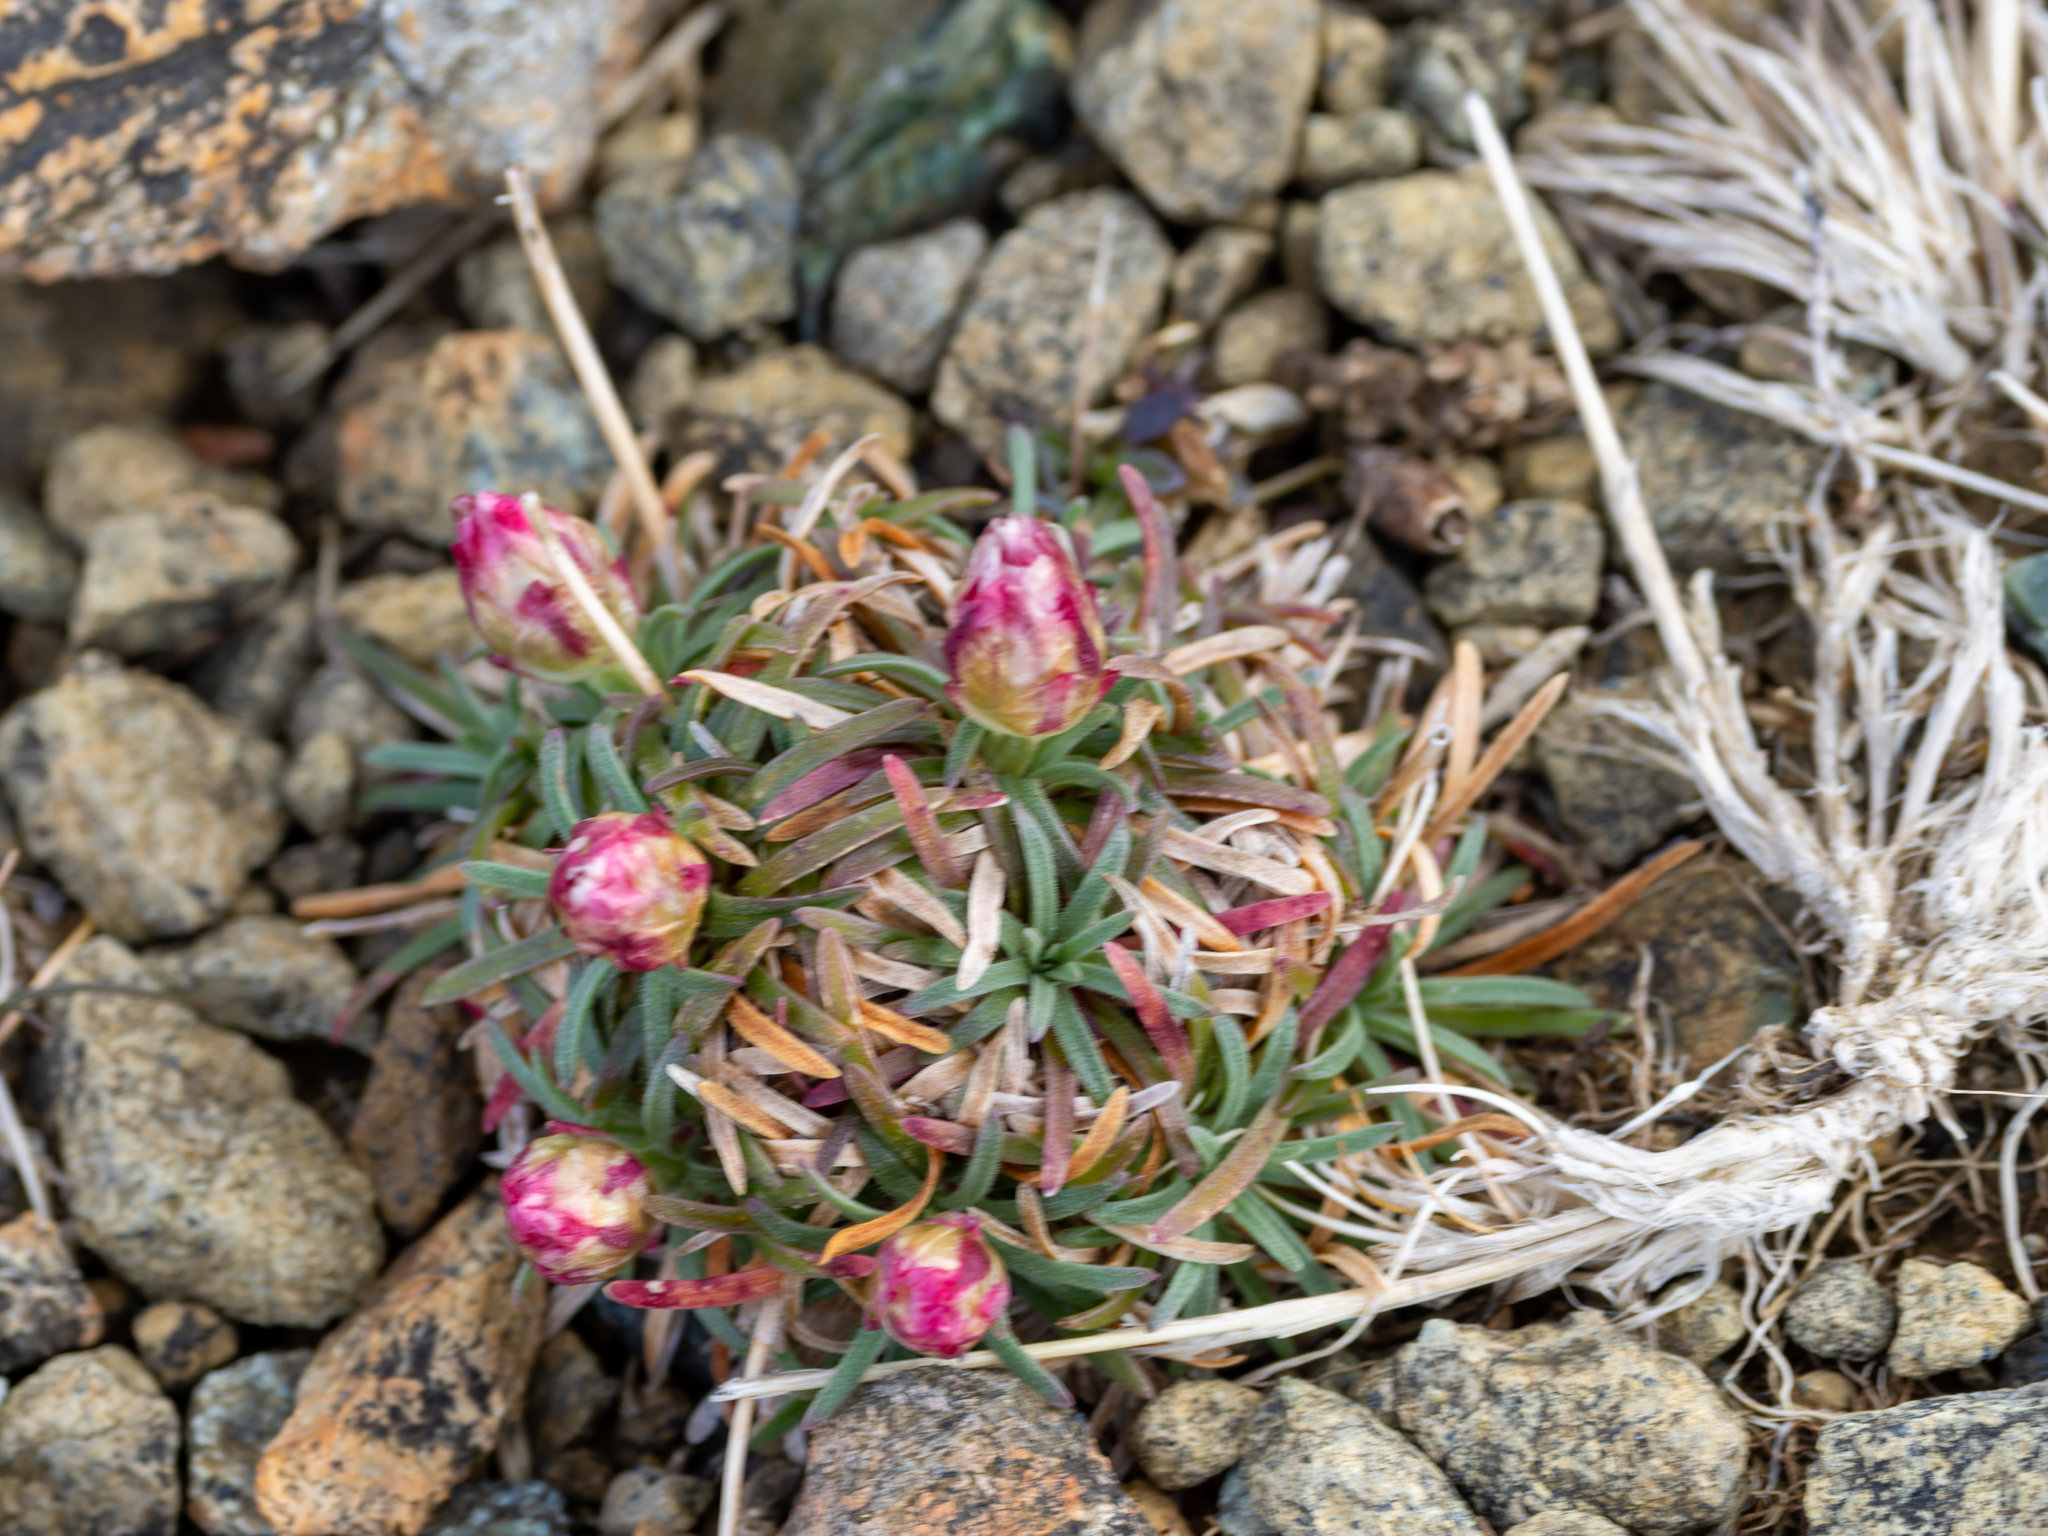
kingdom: Plantae
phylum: Tracheophyta
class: Magnoliopsida
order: Caryophyllales
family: Plumbaginaceae
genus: Armeria
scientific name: Armeria maritima
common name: Thrift
